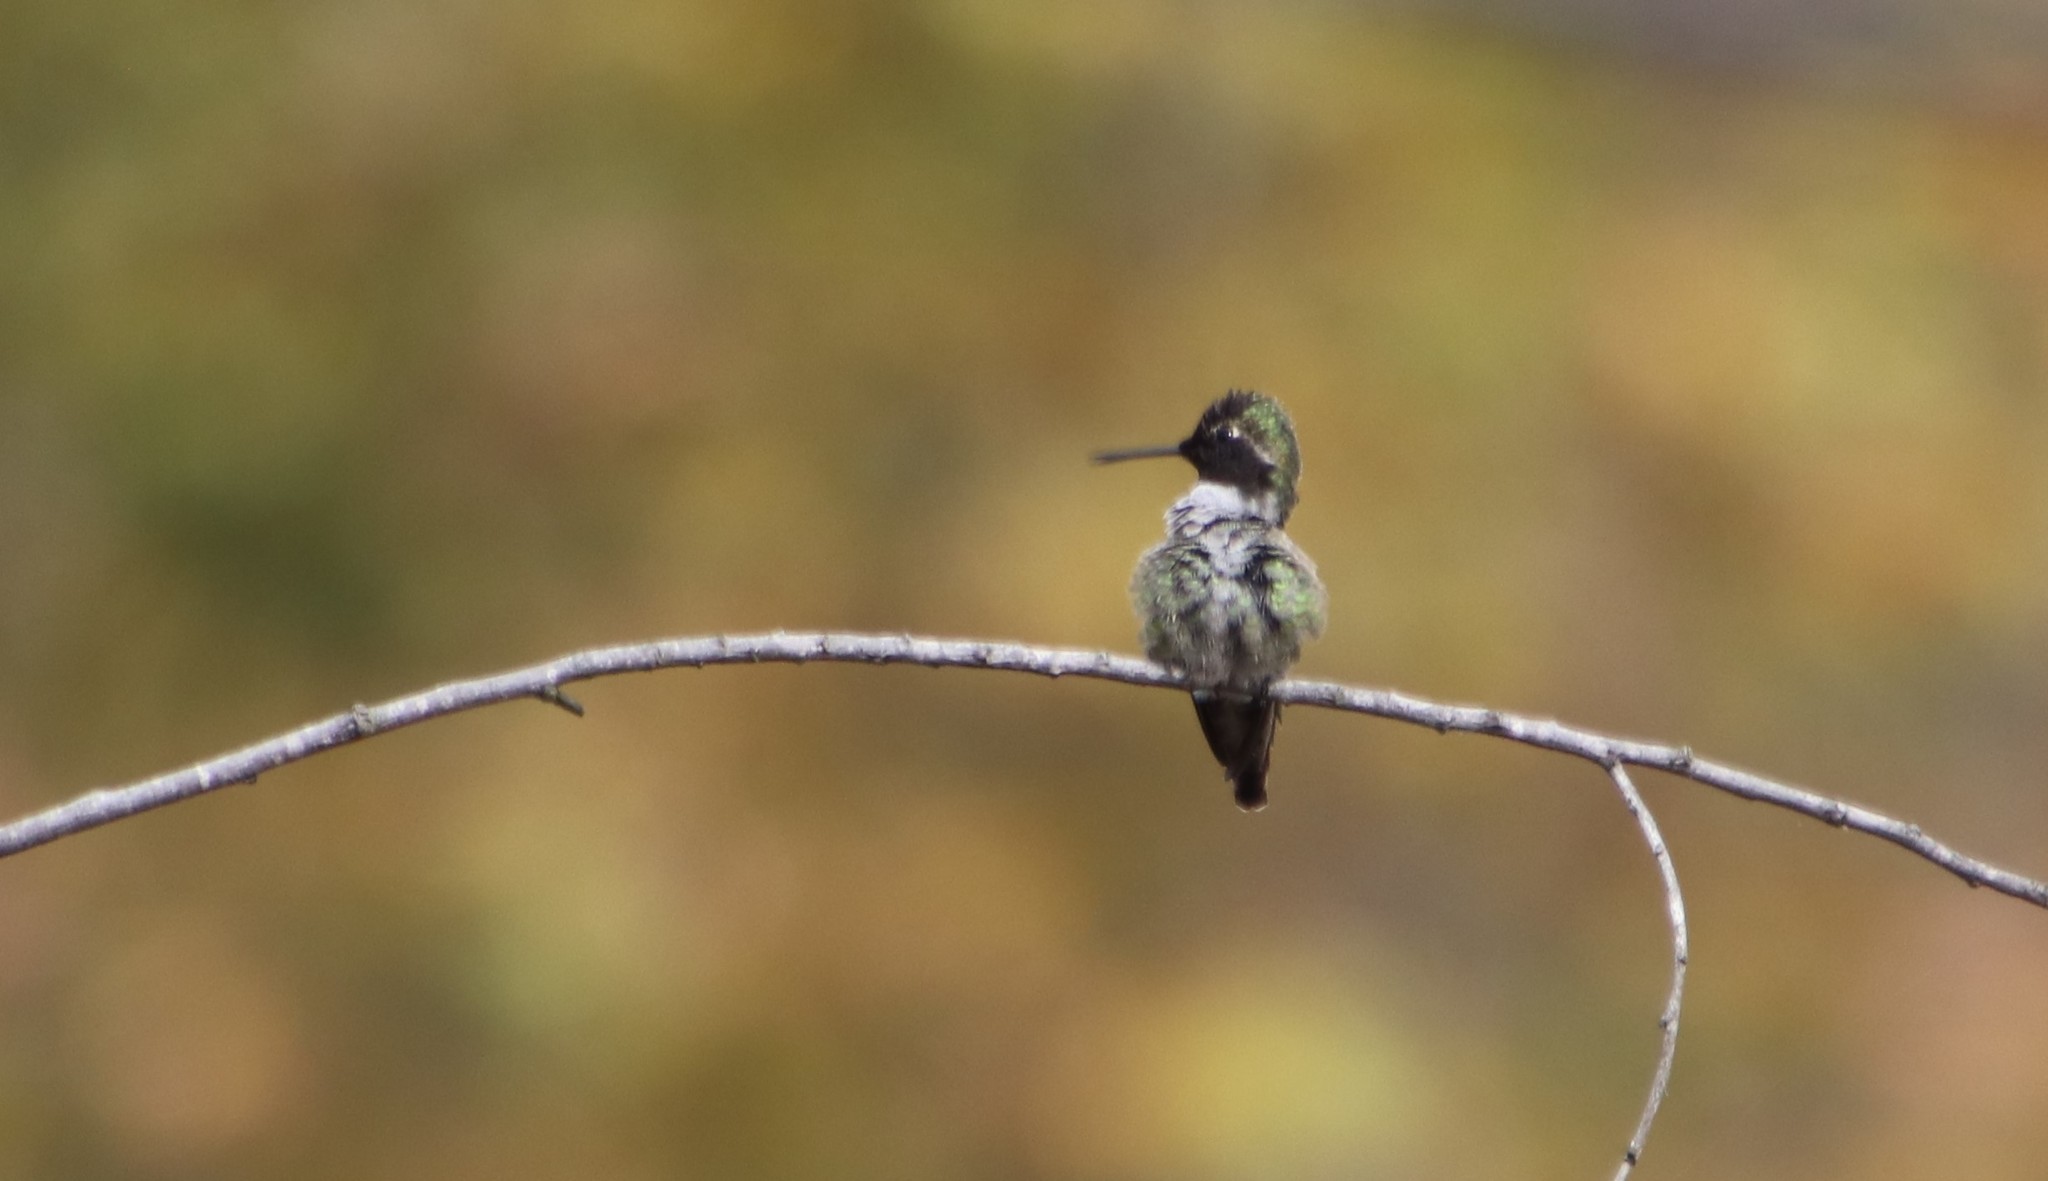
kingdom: Animalia
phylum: Chordata
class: Aves
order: Apodiformes
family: Trochilidae
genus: Calypte
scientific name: Calypte anna
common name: Anna's hummingbird
